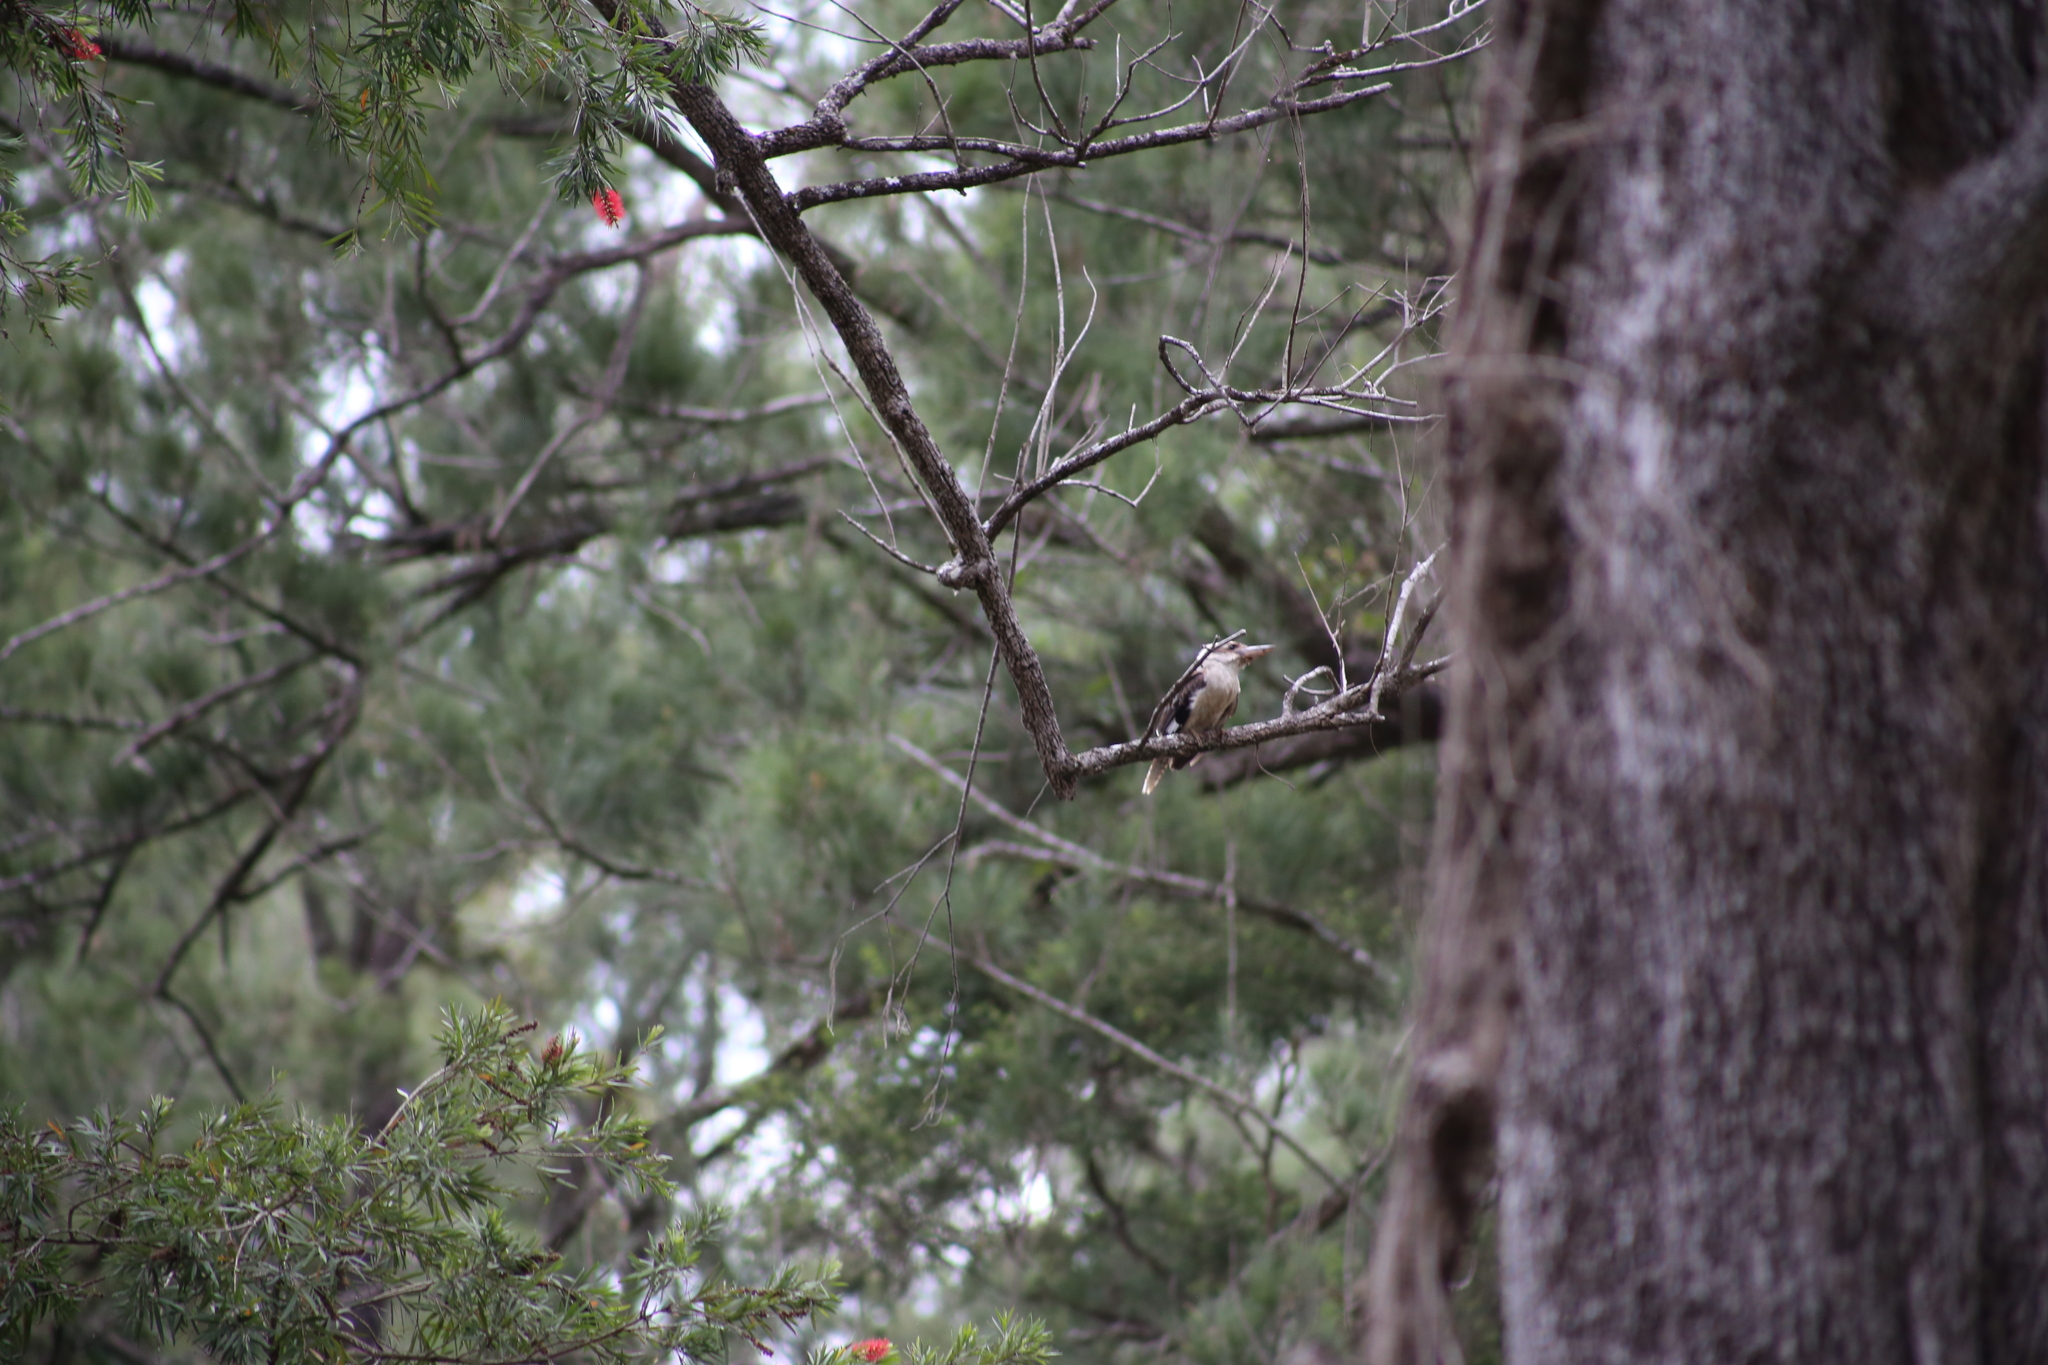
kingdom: Animalia
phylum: Chordata
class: Aves
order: Coraciiformes
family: Alcedinidae
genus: Dacelo
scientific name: Dacelo novaeguineae
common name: Laughing kookaburra
